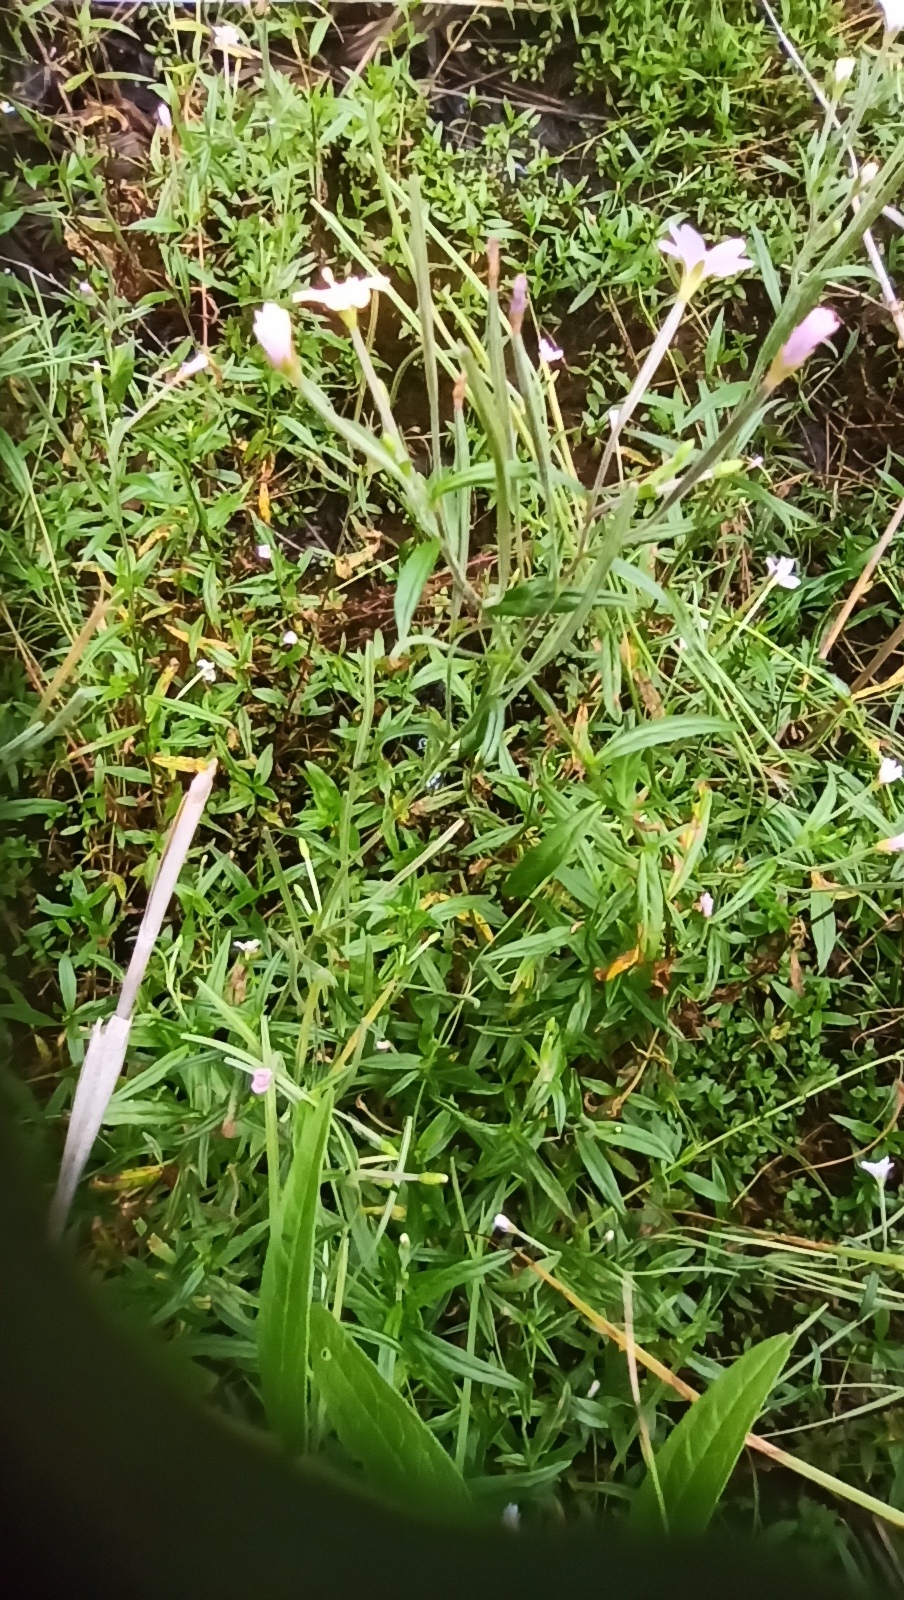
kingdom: Plantae
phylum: Tracheophyta
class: Magnoliopsida
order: Myrtales
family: Onagraceae
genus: Epilobium
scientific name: Epilobium palustre
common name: Marsh willowherb
